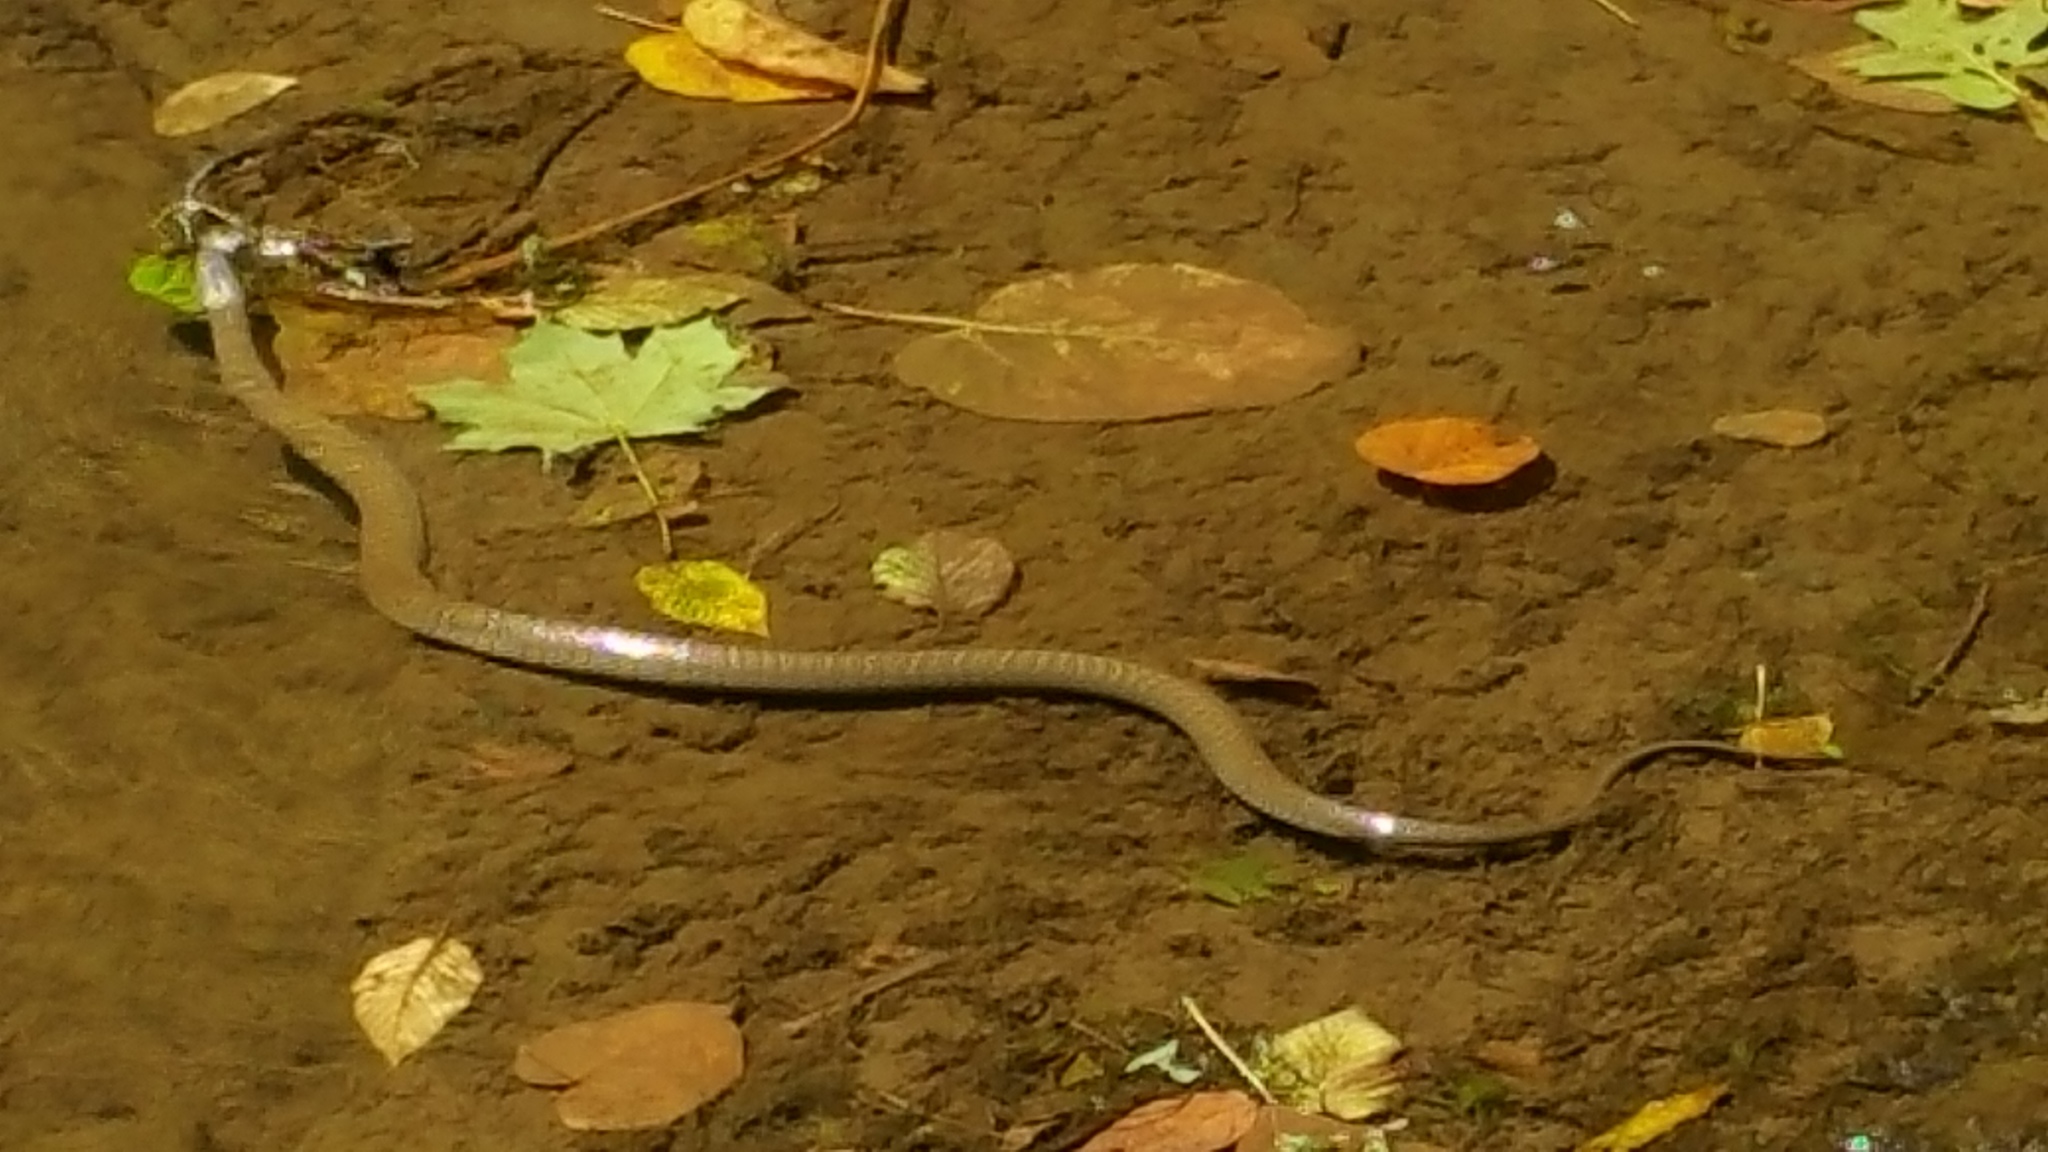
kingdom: Animalia
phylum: Chordata
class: Squamata
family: Colubridae
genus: Nerodia
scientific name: Nerodia sipedon
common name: Northern water snake
